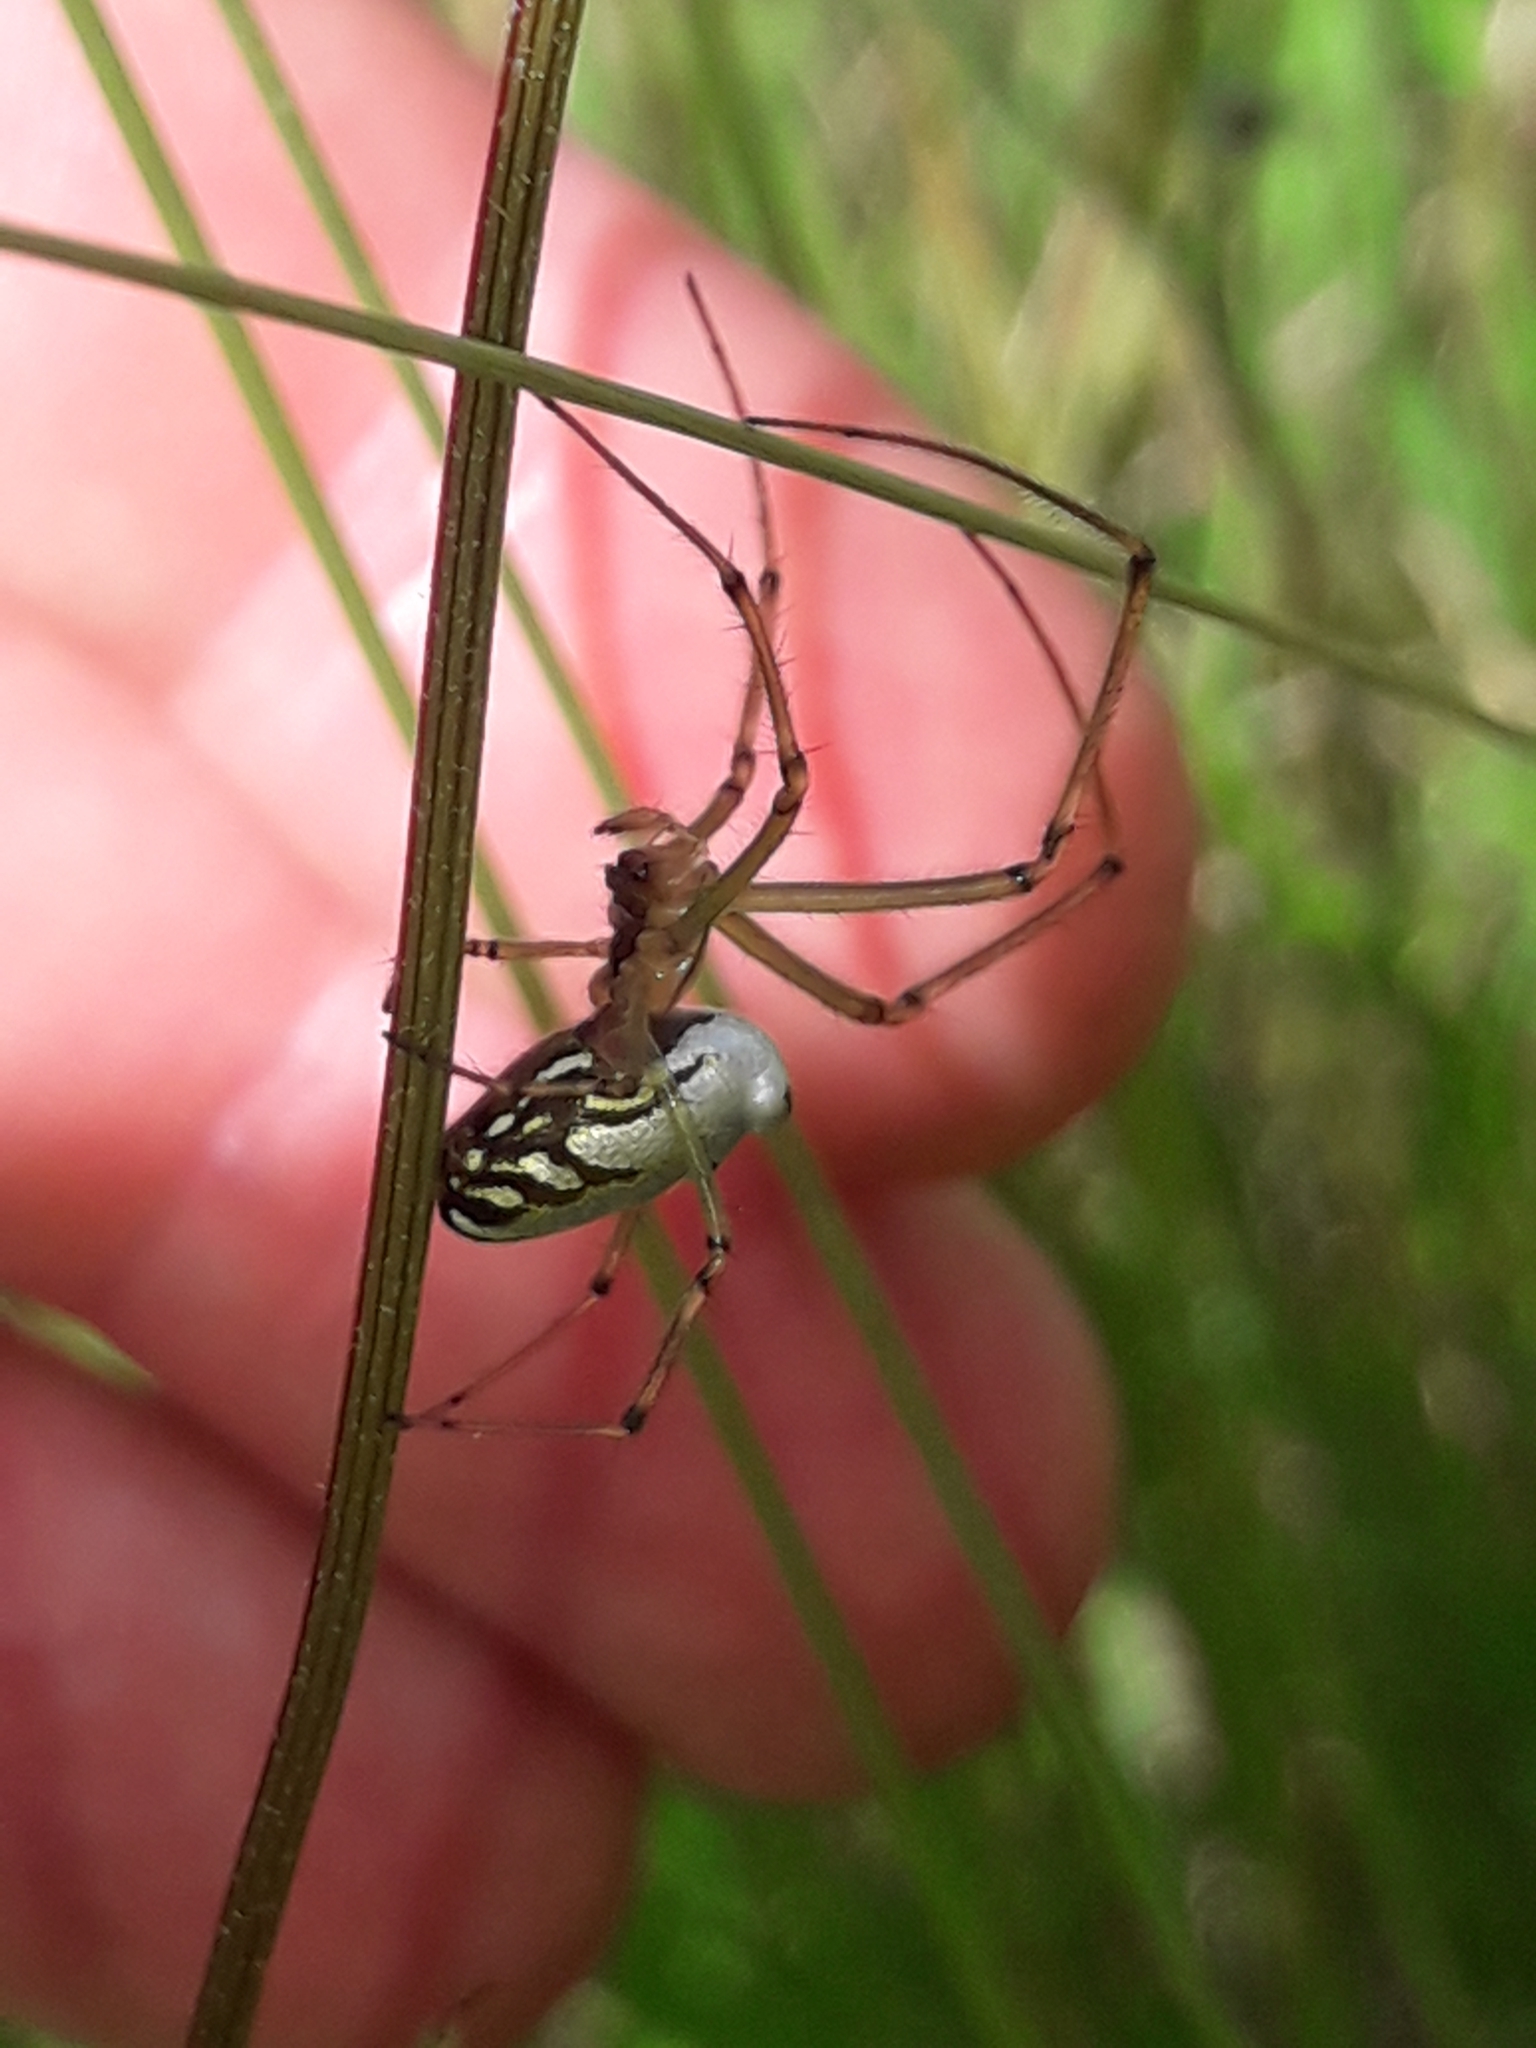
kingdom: Animalia
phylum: Arthropoda
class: Arachnida
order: Araneae
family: Tetragnathidae
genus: Leucauge
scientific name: Leucauge dromedaria
